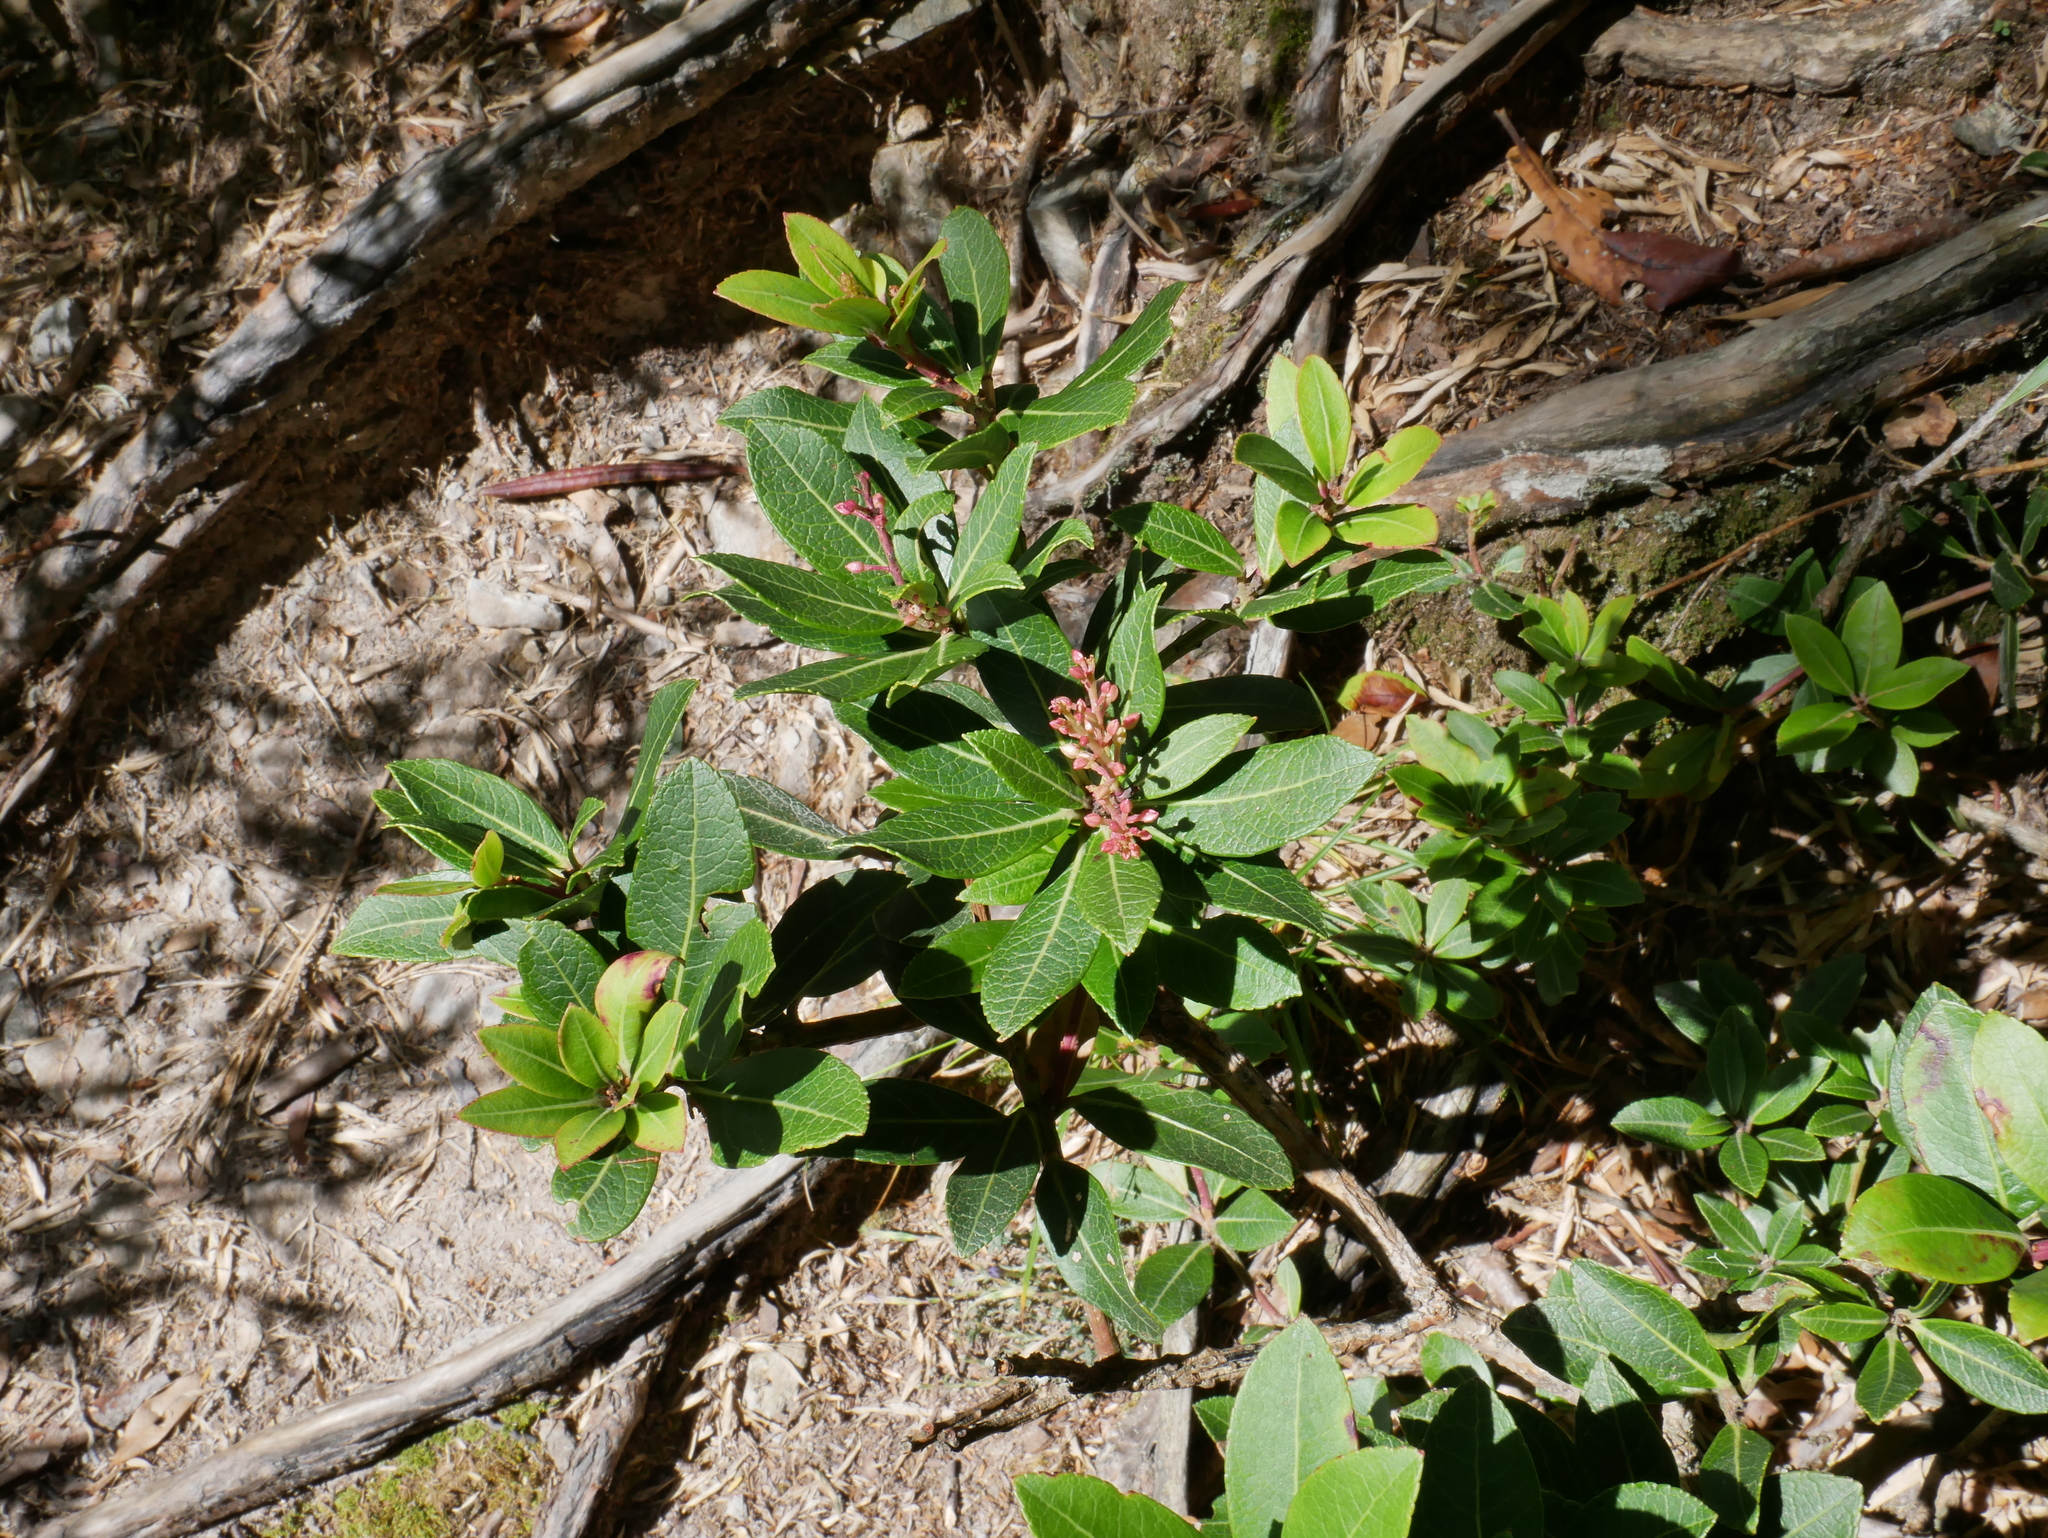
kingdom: Plantae
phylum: Tracheophyta
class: Magnoliopsida
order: Ericales
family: Ericaceae
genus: Pieris
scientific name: Pieris japonica
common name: Japanese pieris
